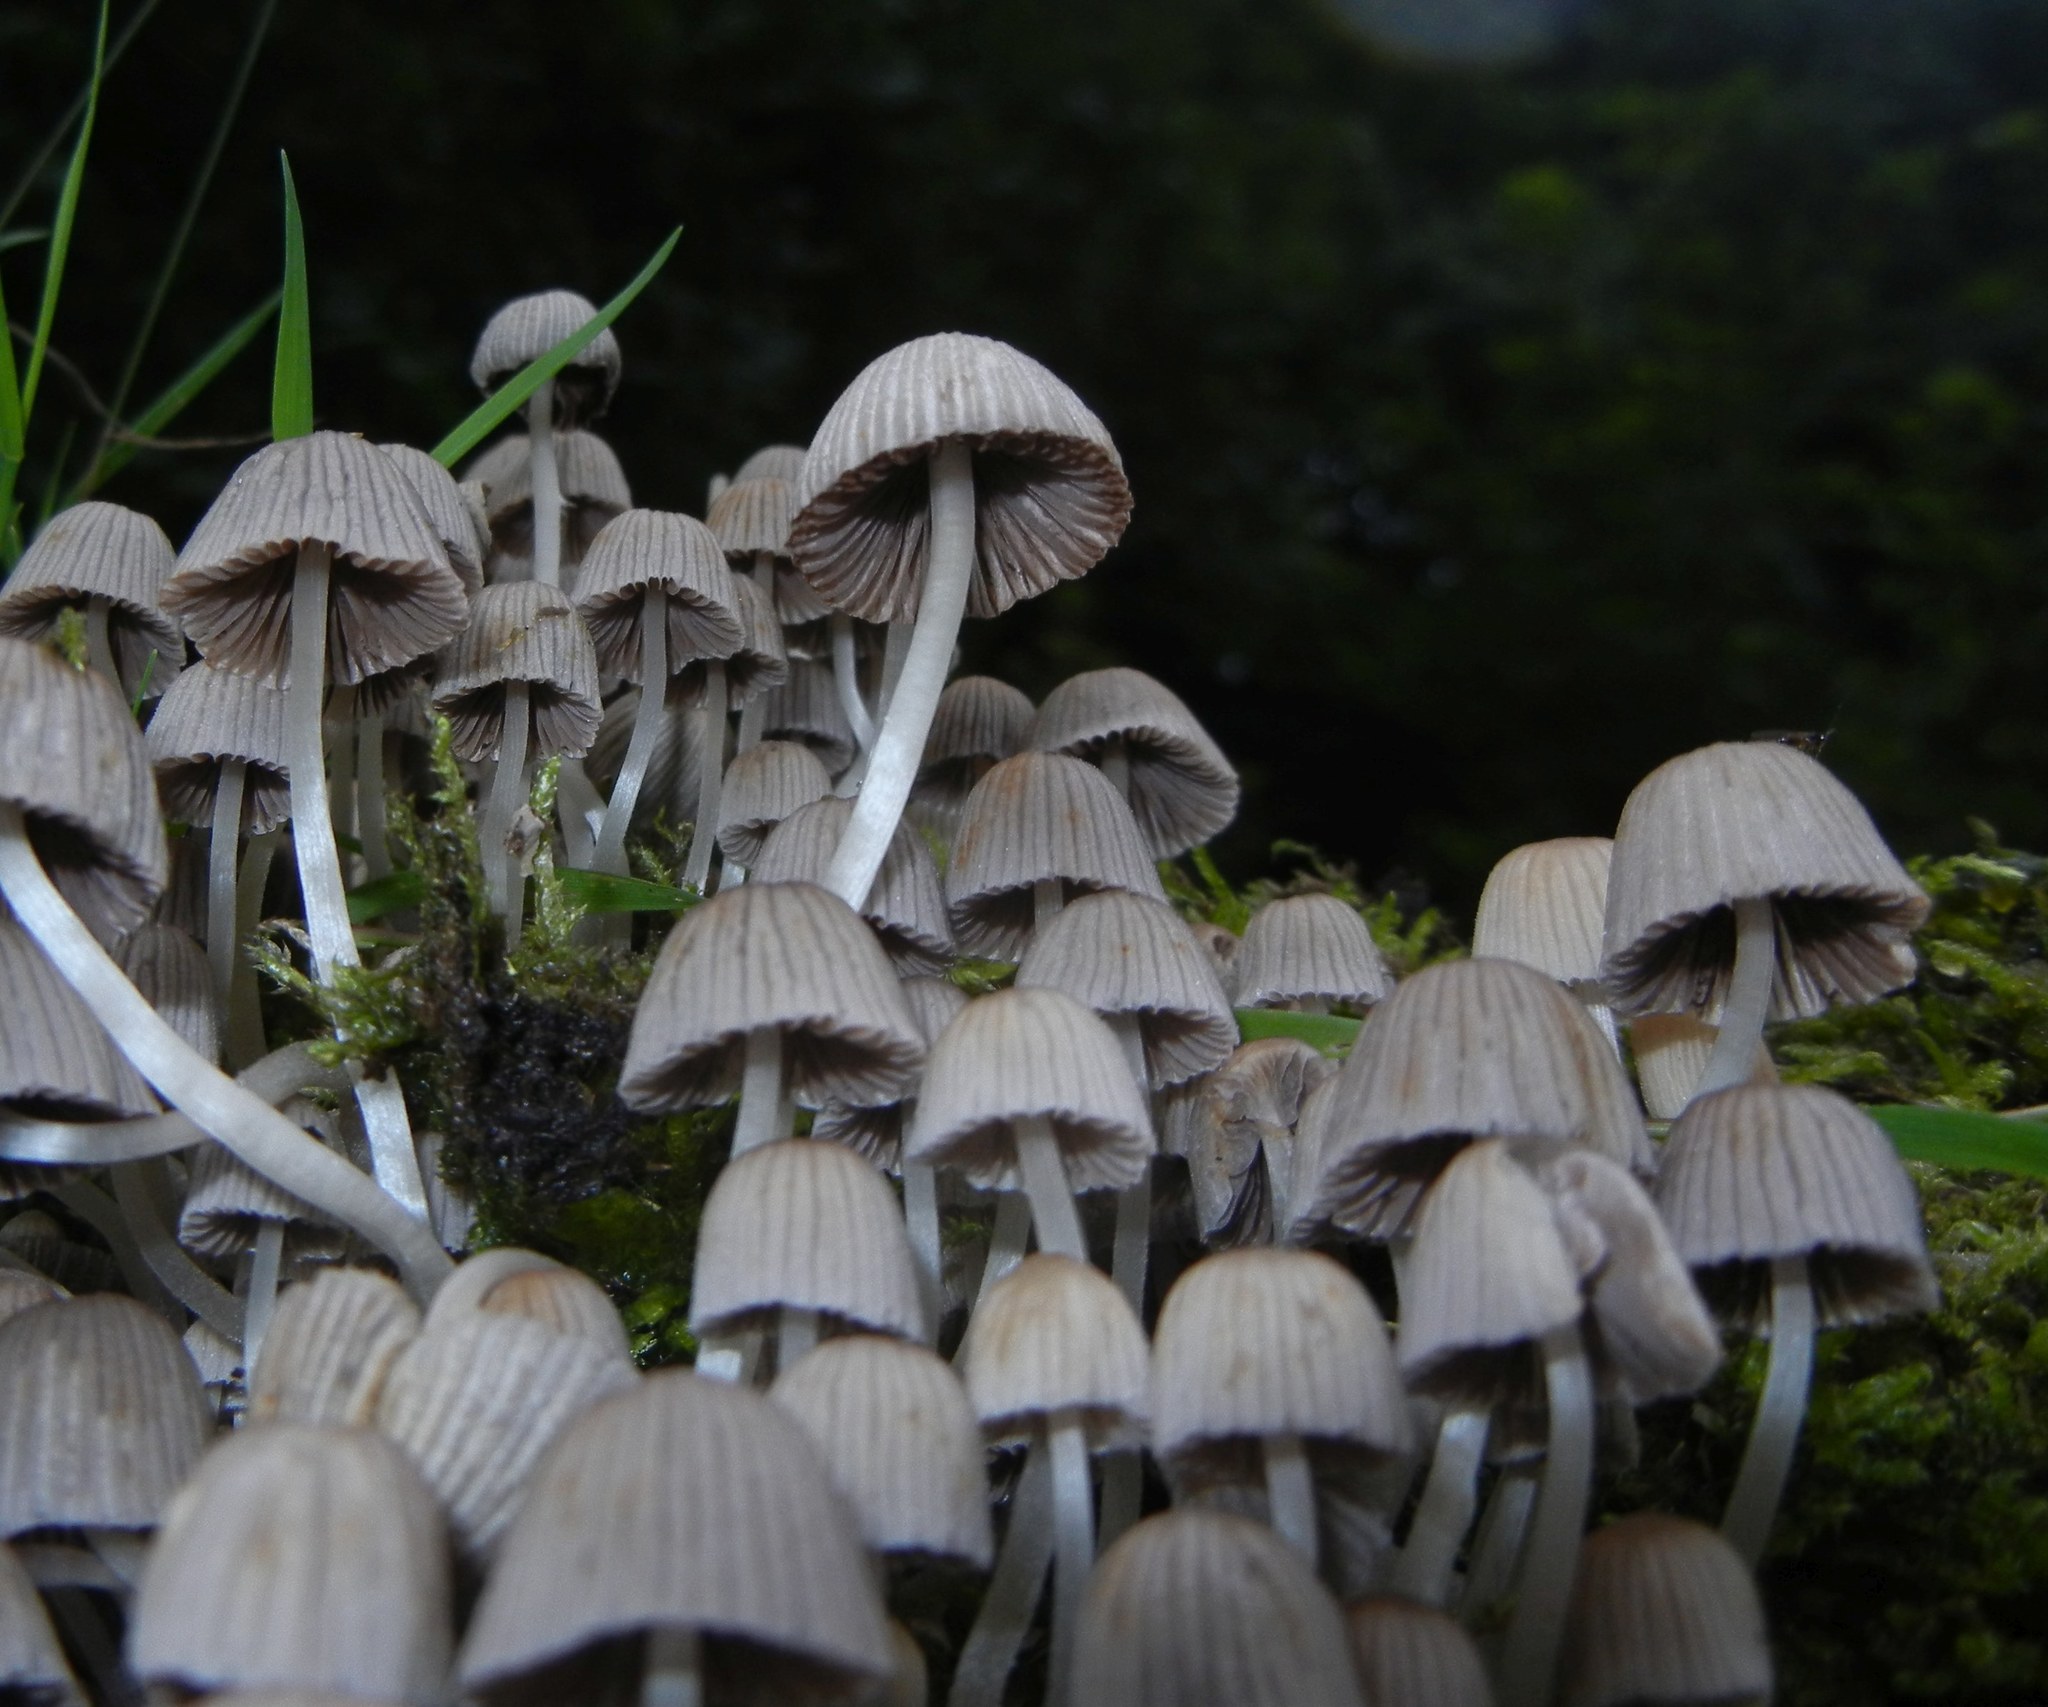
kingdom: Fungi
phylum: Basidiomycota
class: Agaricomycetes
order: Agaricales
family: Psathyrellaceae
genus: Coprinellus
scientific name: Coprinellus disseminatus
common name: Fairies' bonnets
